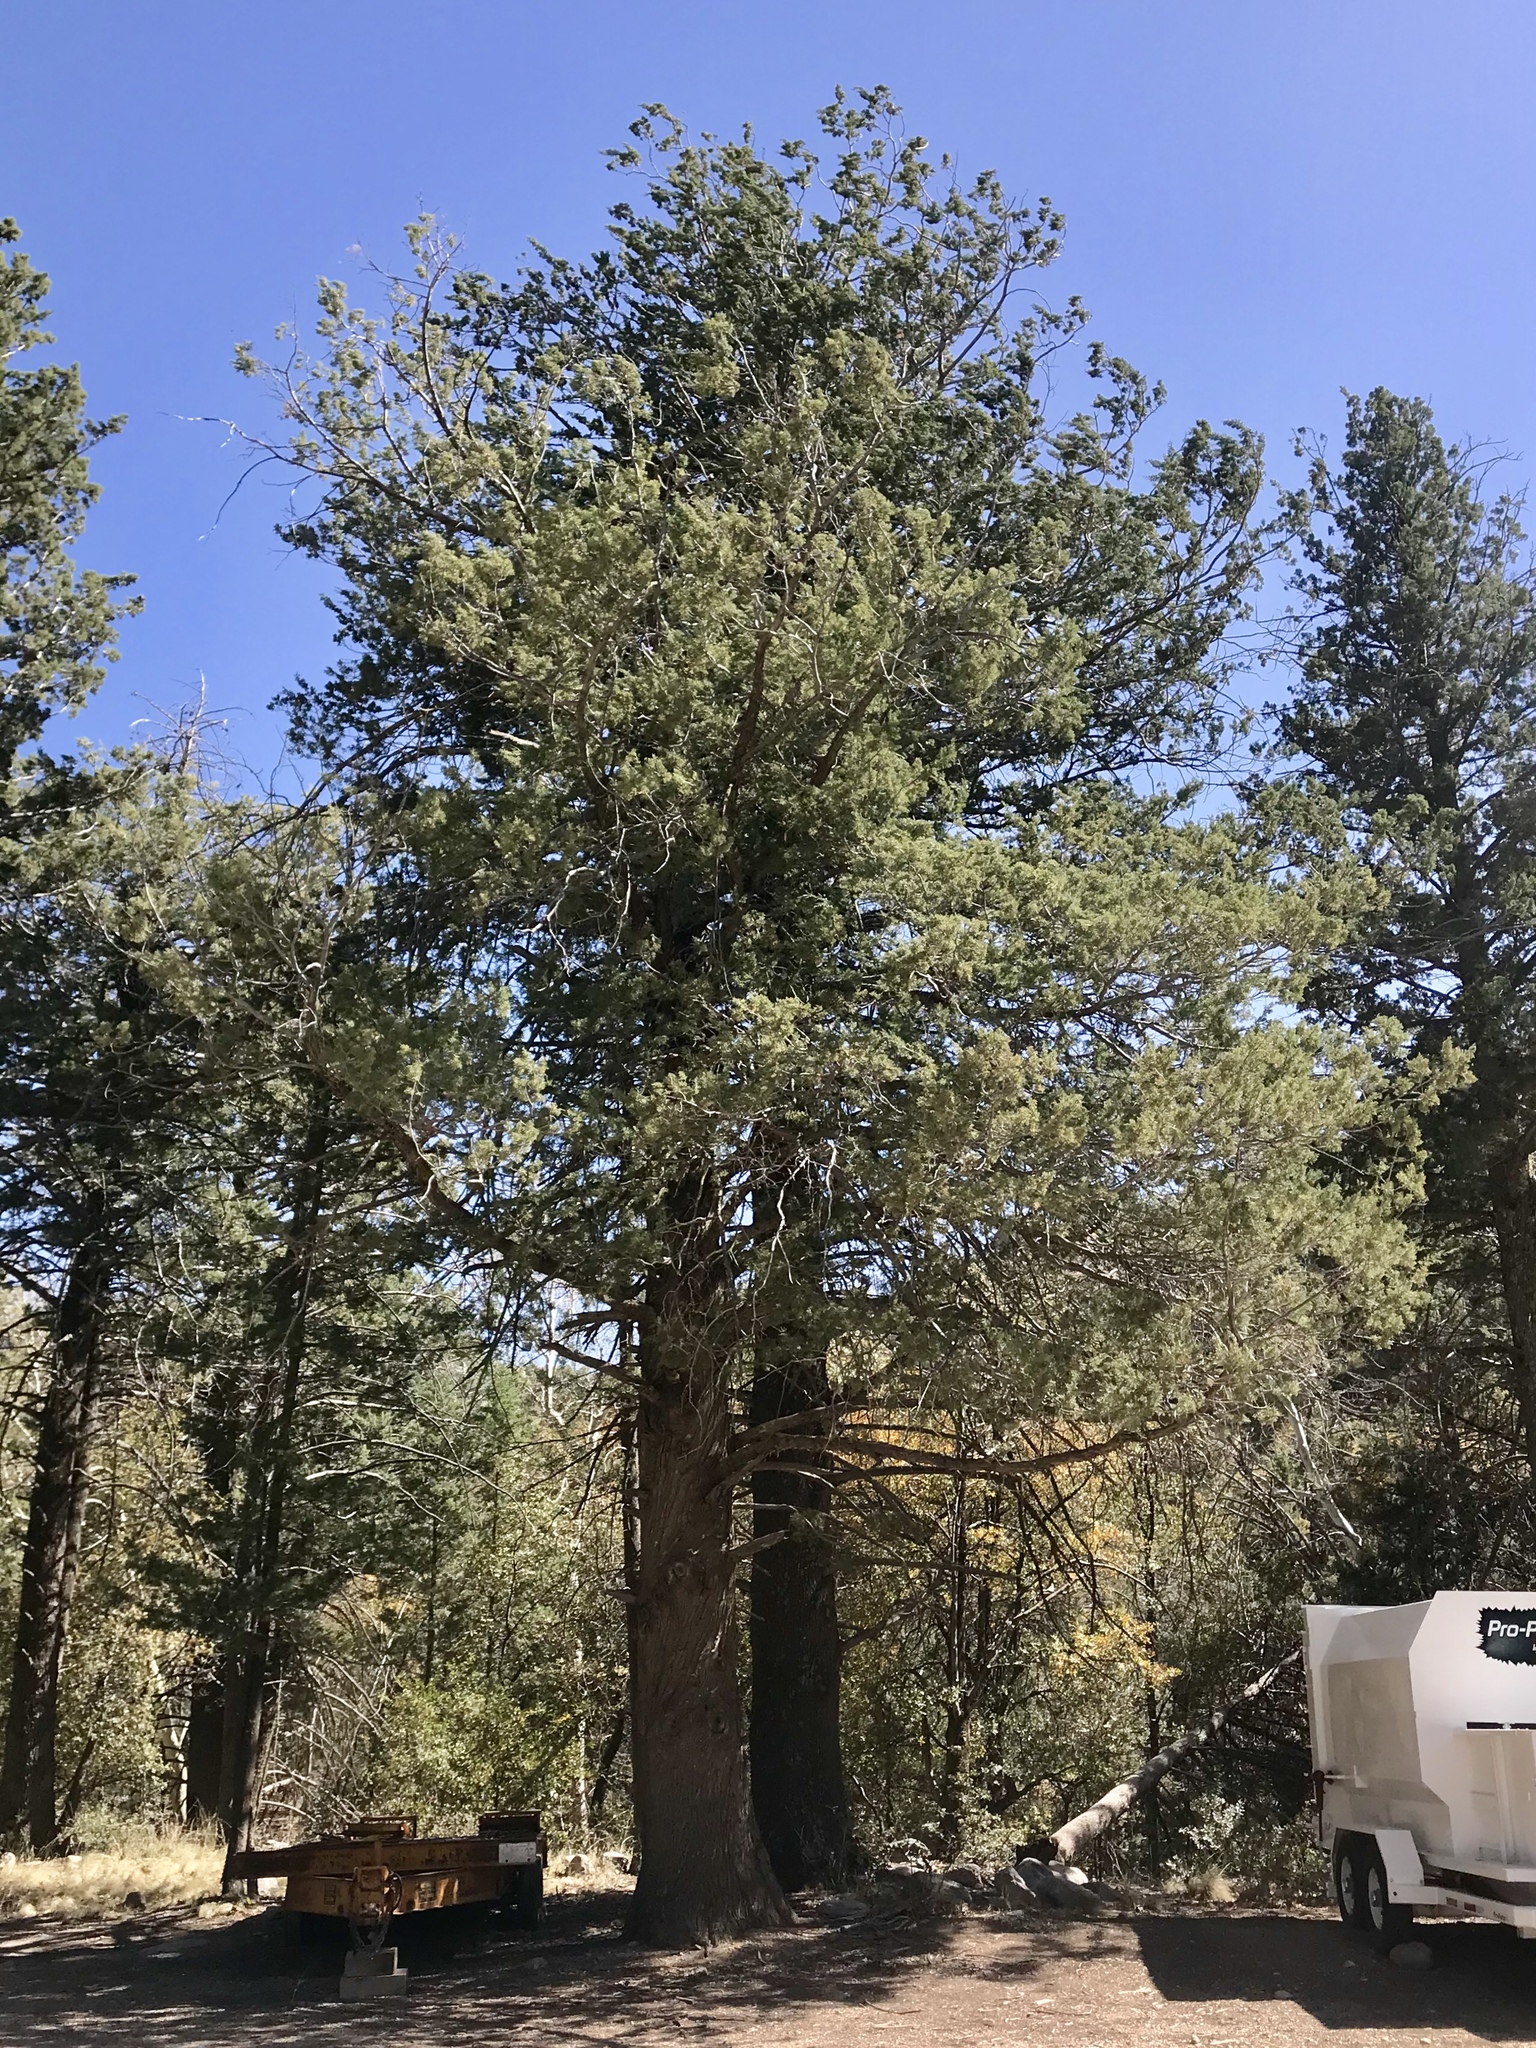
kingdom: Plantae
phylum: Tracheophyta
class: Pinopsida
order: Pinales
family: Cupressaceae
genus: Cupressus
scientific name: Cupressus arizonica
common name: Arizona cypress
